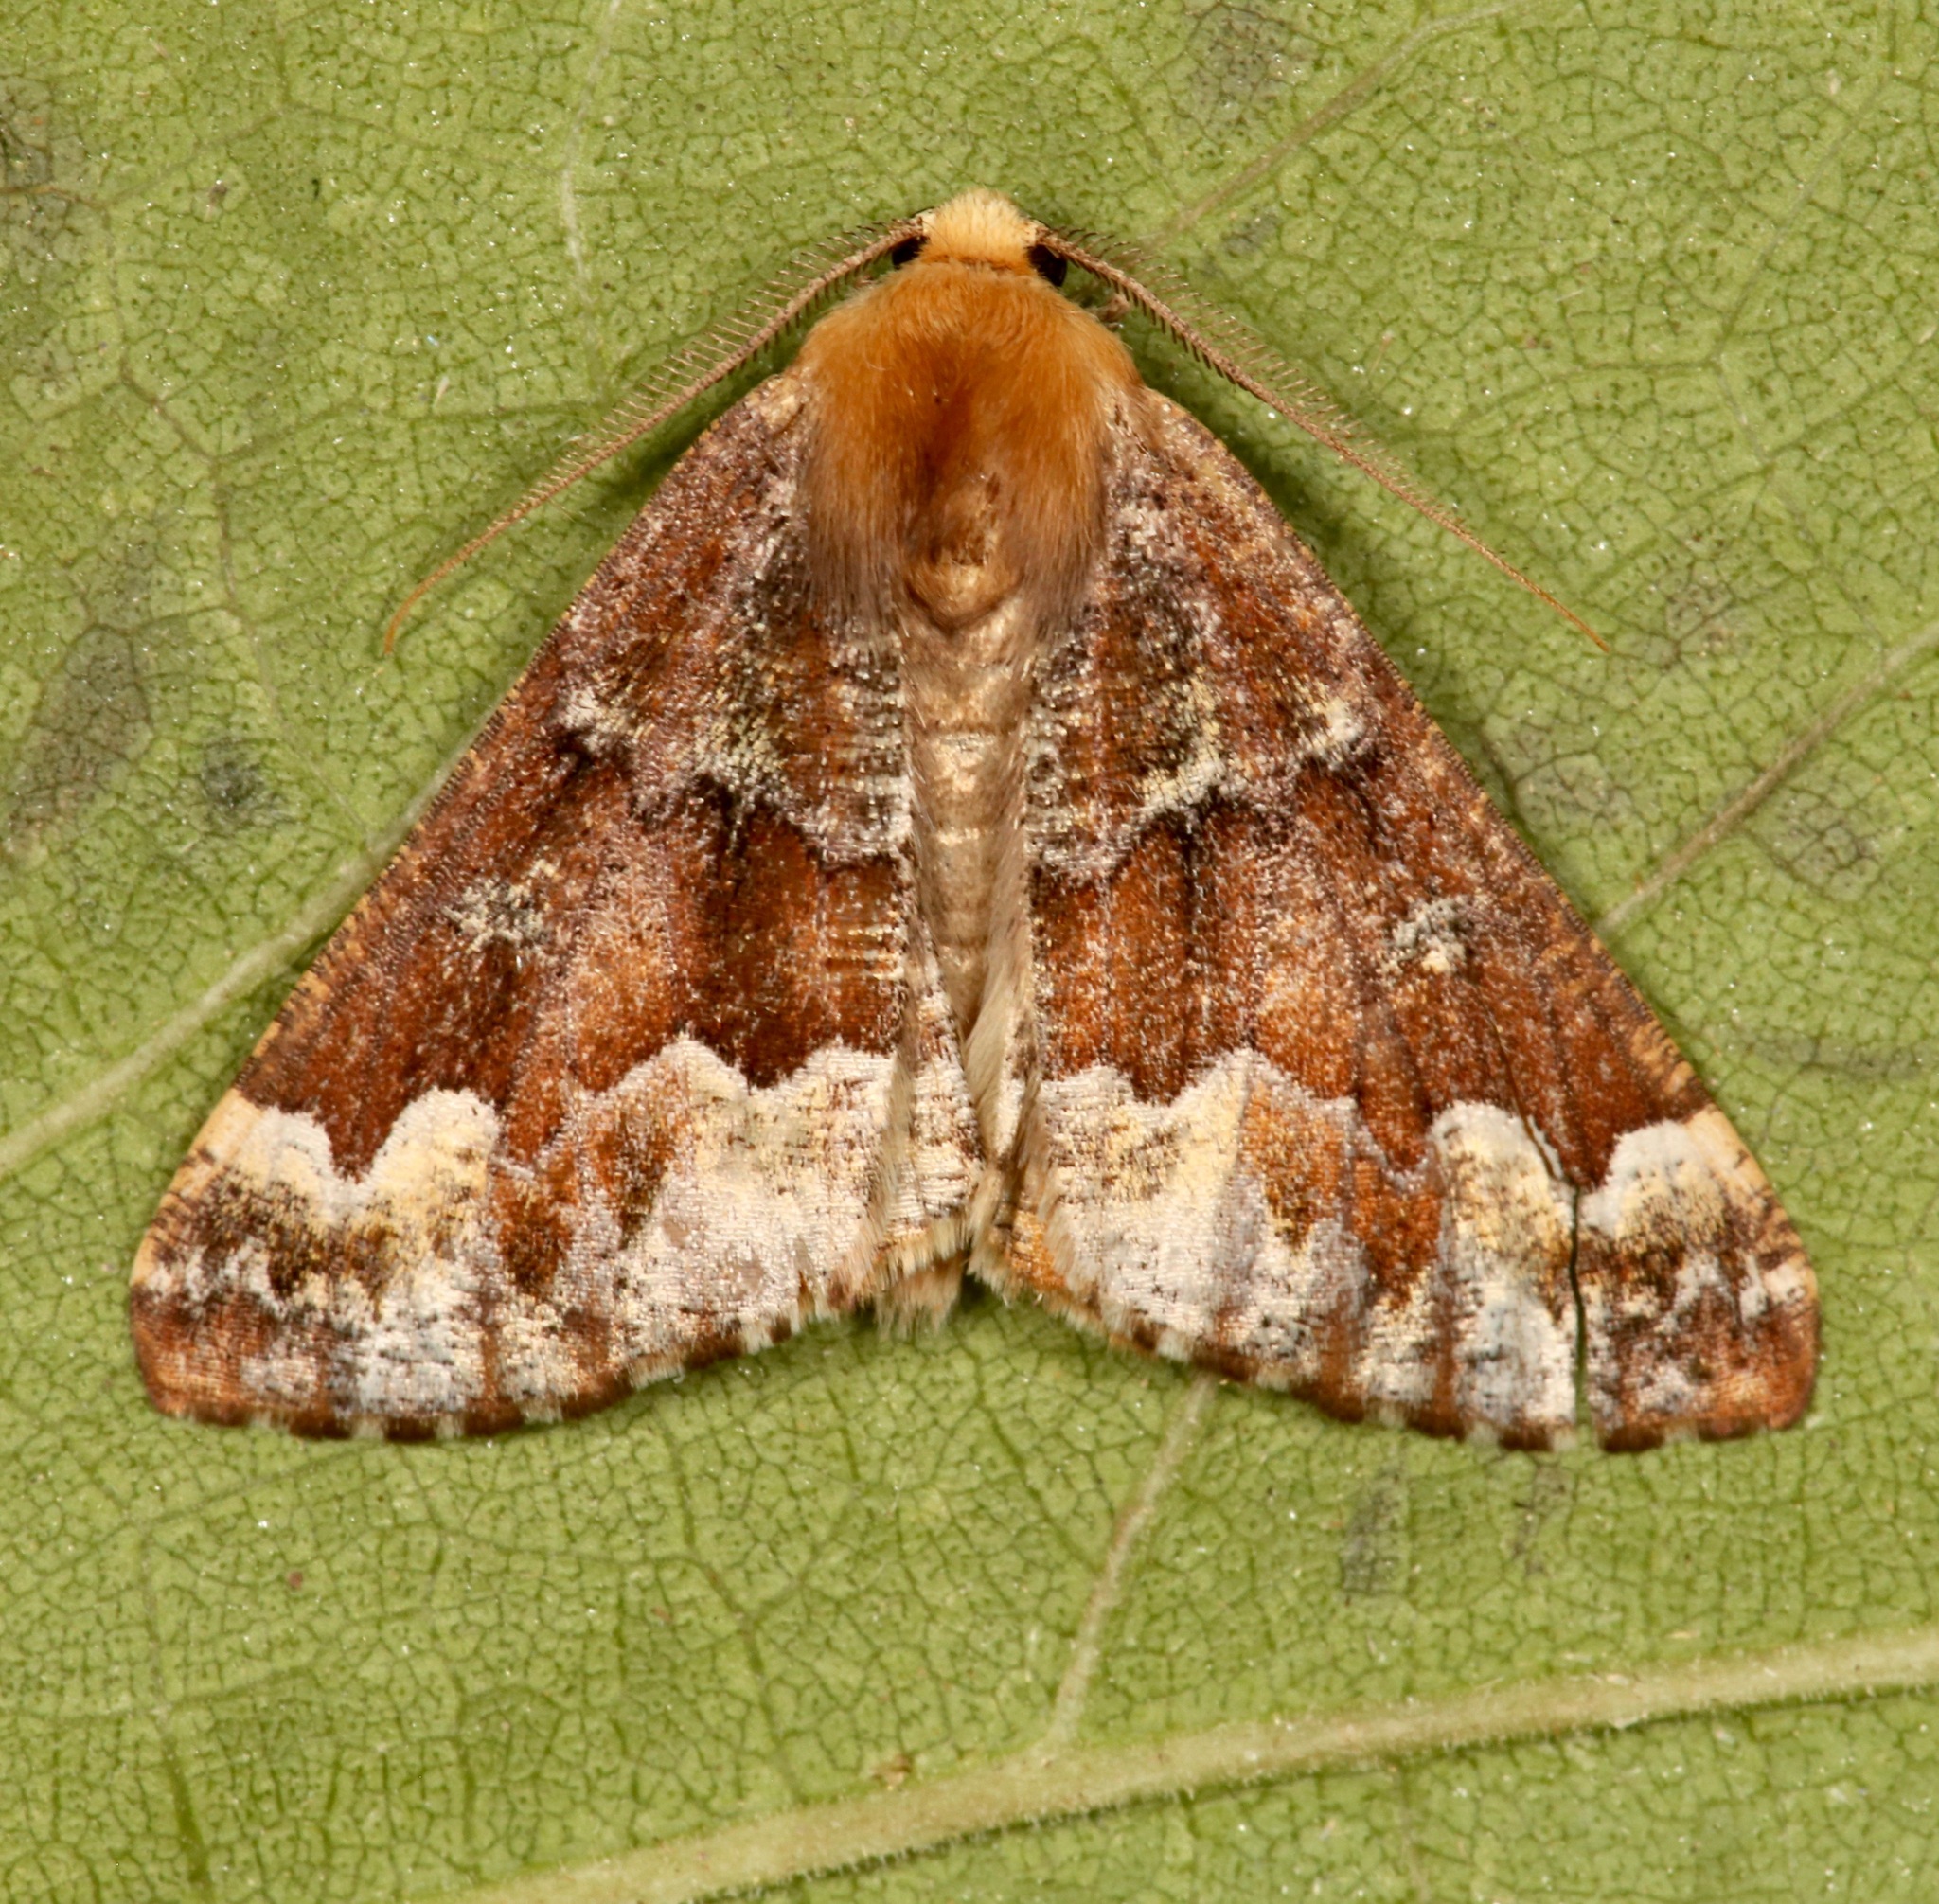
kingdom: Animalia
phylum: Arthropoda
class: Insecta
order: Lepidoptera
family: Geometridae
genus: Caripeta
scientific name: Caripeta pulcherrima
